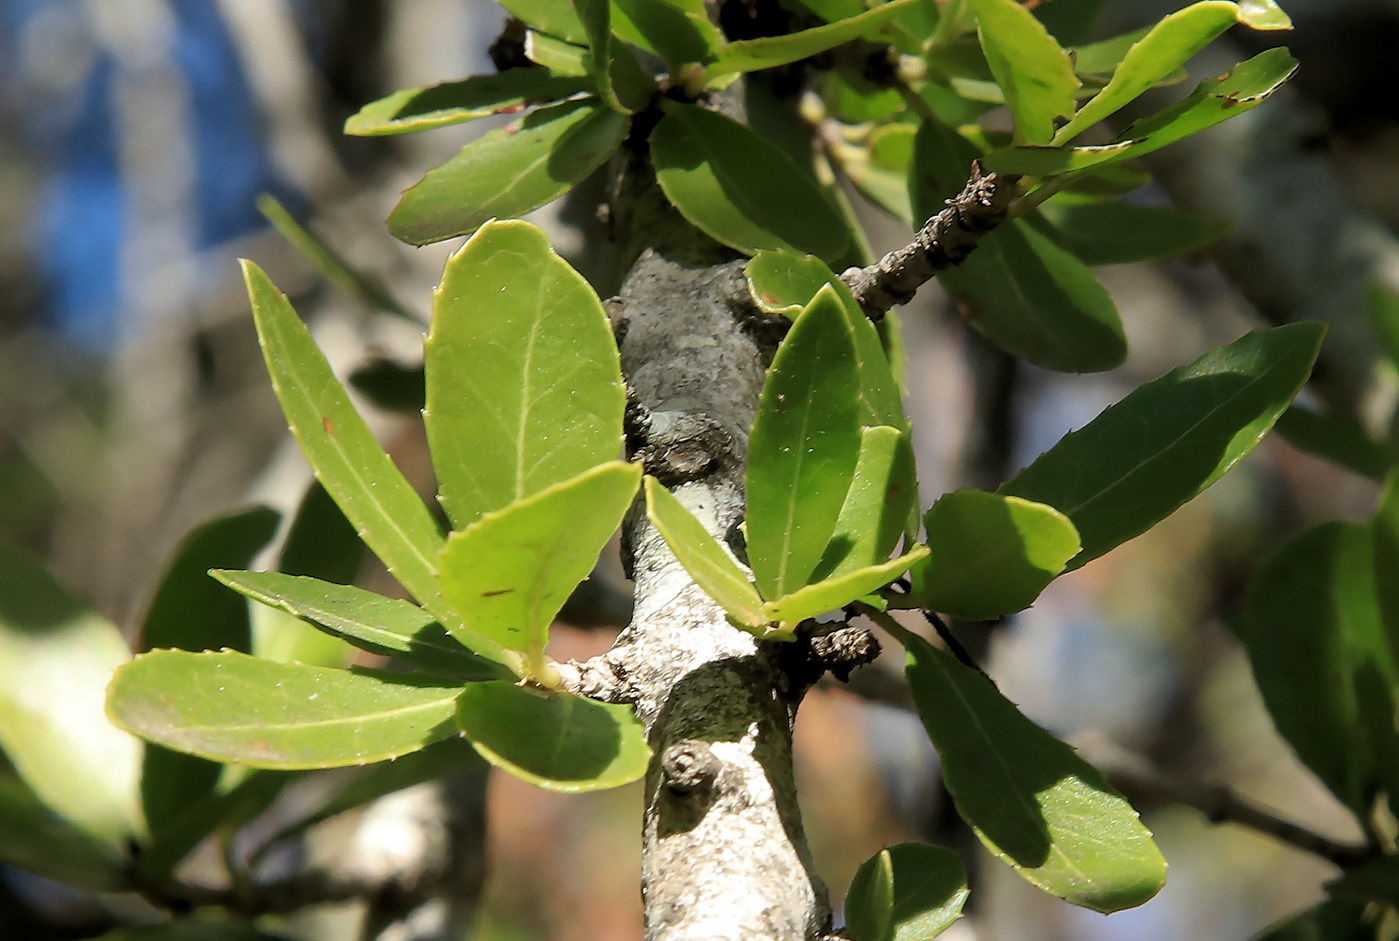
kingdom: Plantae
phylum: Tracheophyta
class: Magnoliopsida
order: Celastrales
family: Celastraceae
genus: Elaeodendron
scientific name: Elaeodendron transvaalense
